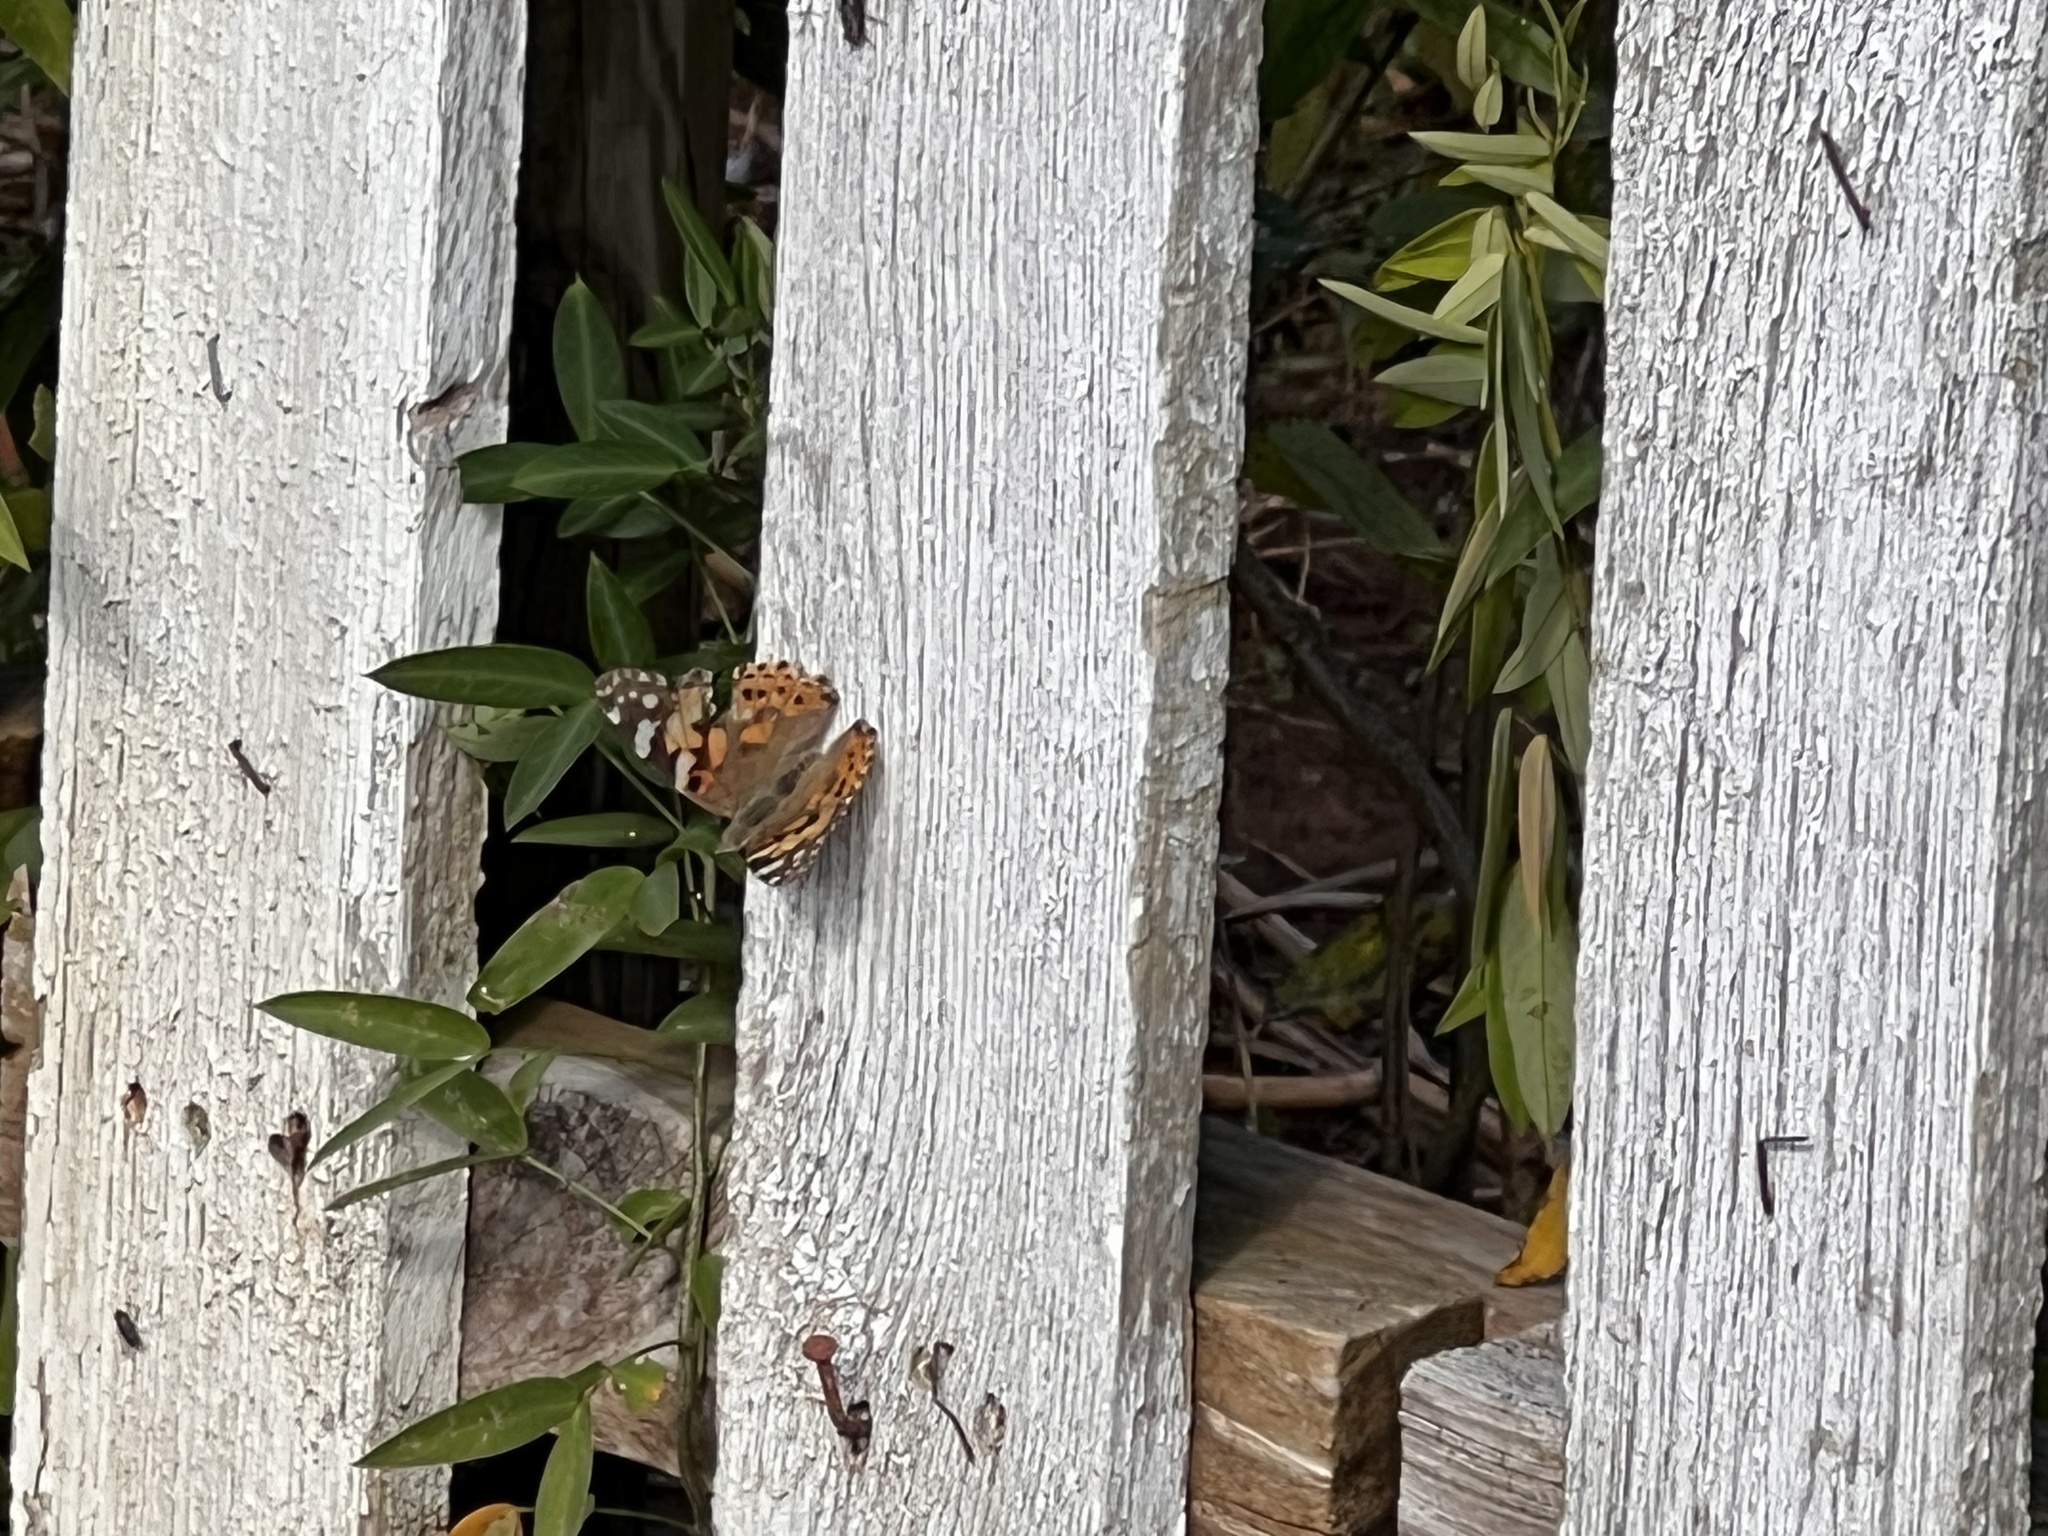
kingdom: Animalia
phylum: Arthropoda
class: Insecta
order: Lepidoptera
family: Nymphalidae
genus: Vanessa
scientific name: Vanessa cardui
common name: Painted lady
